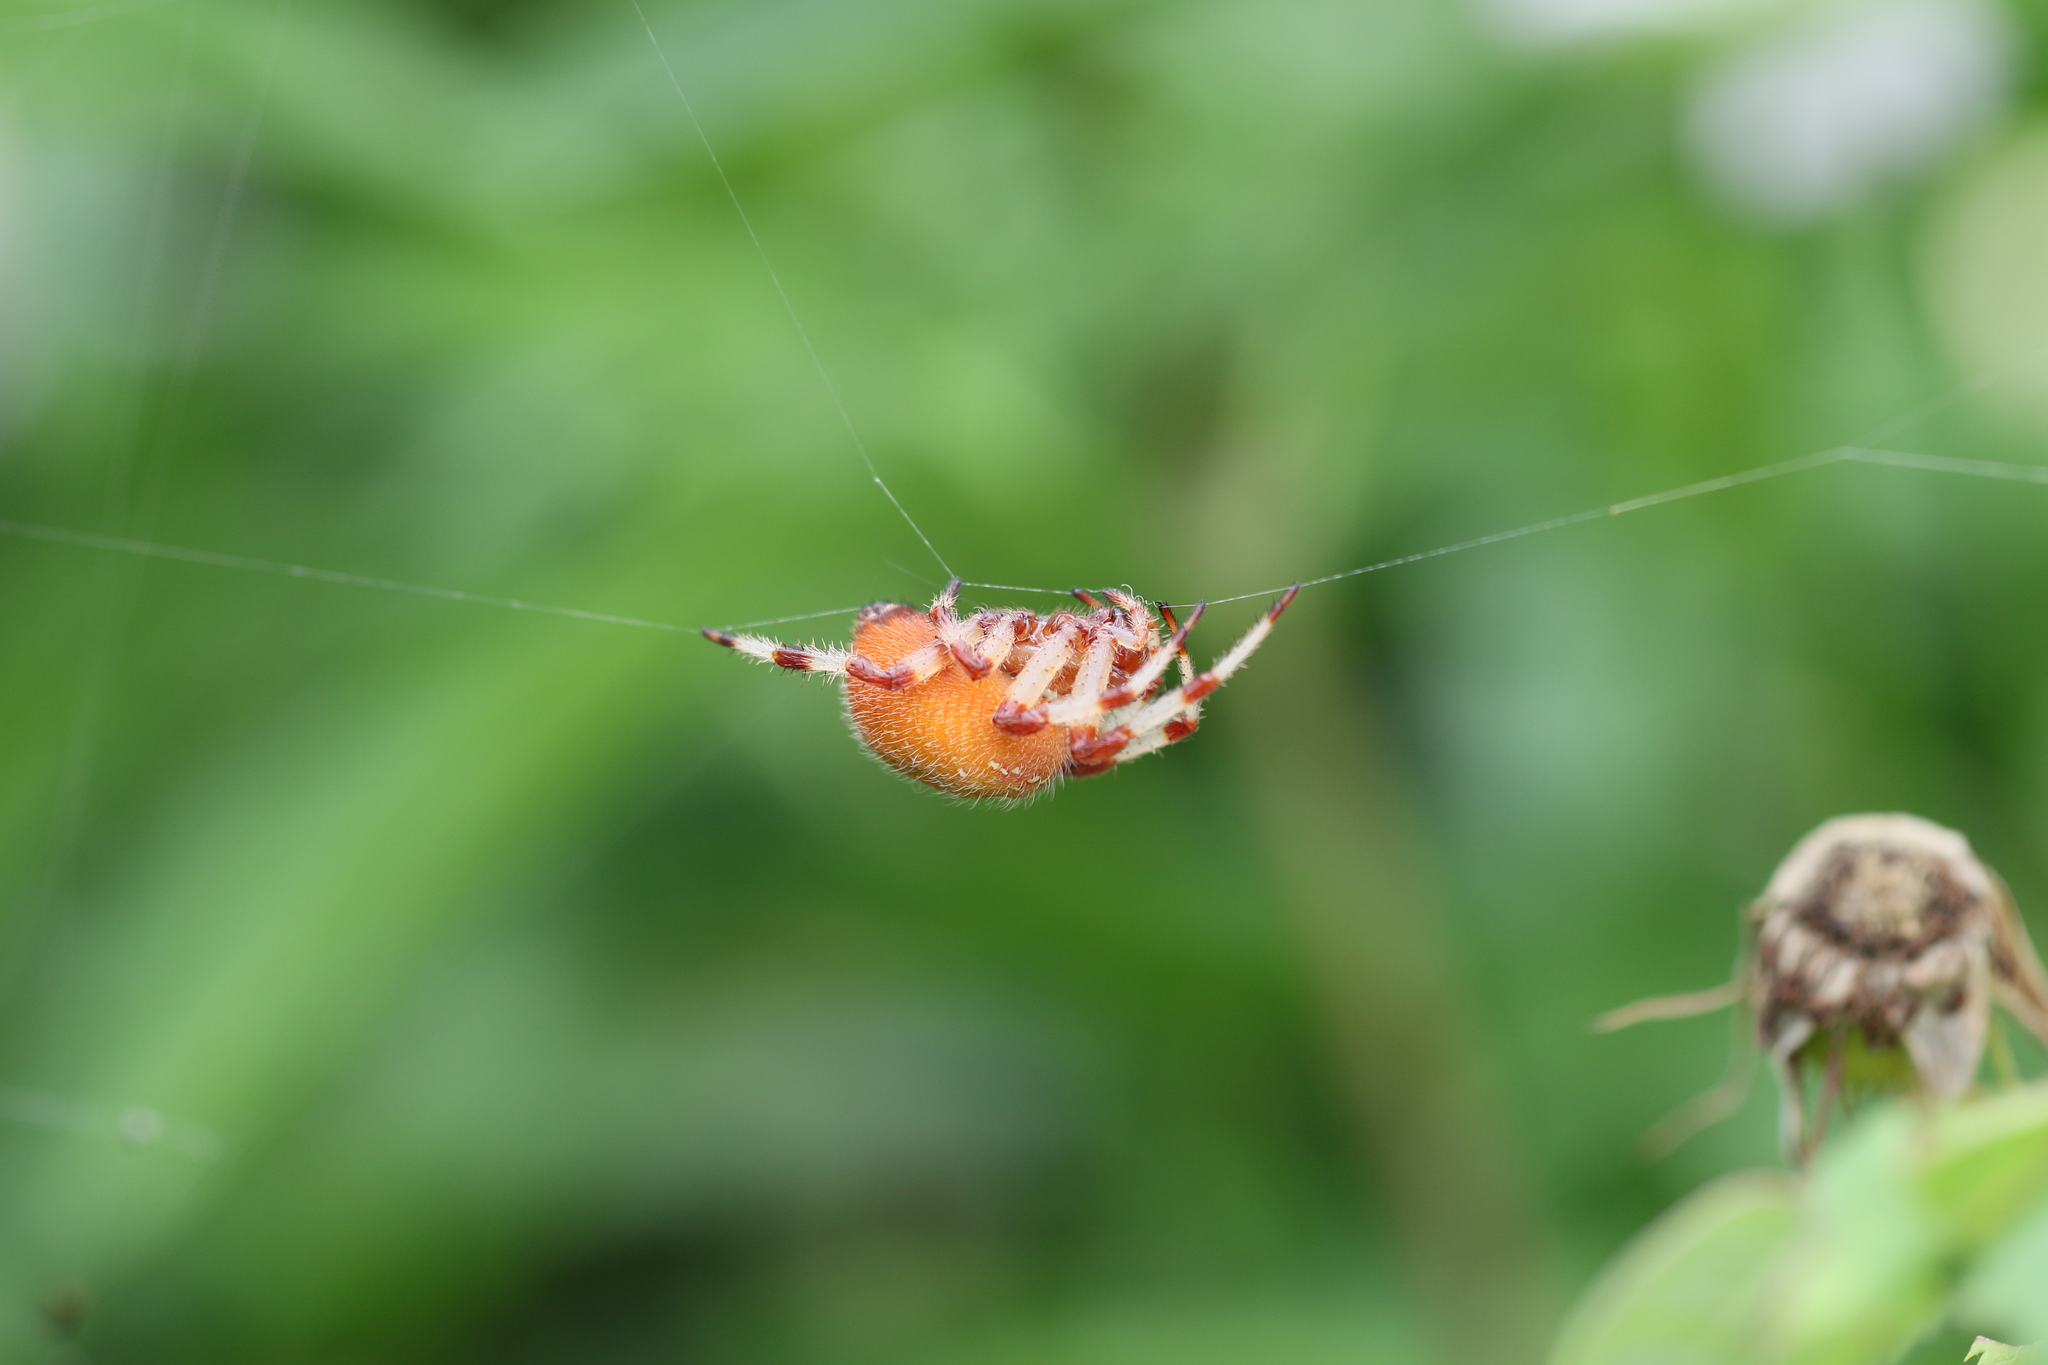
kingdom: Animalia
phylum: Arthropoda
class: Arachnida
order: Araneae
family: Araneidae
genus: Araneus
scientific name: Araneus trifolium
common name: Shamrock orbweaver
